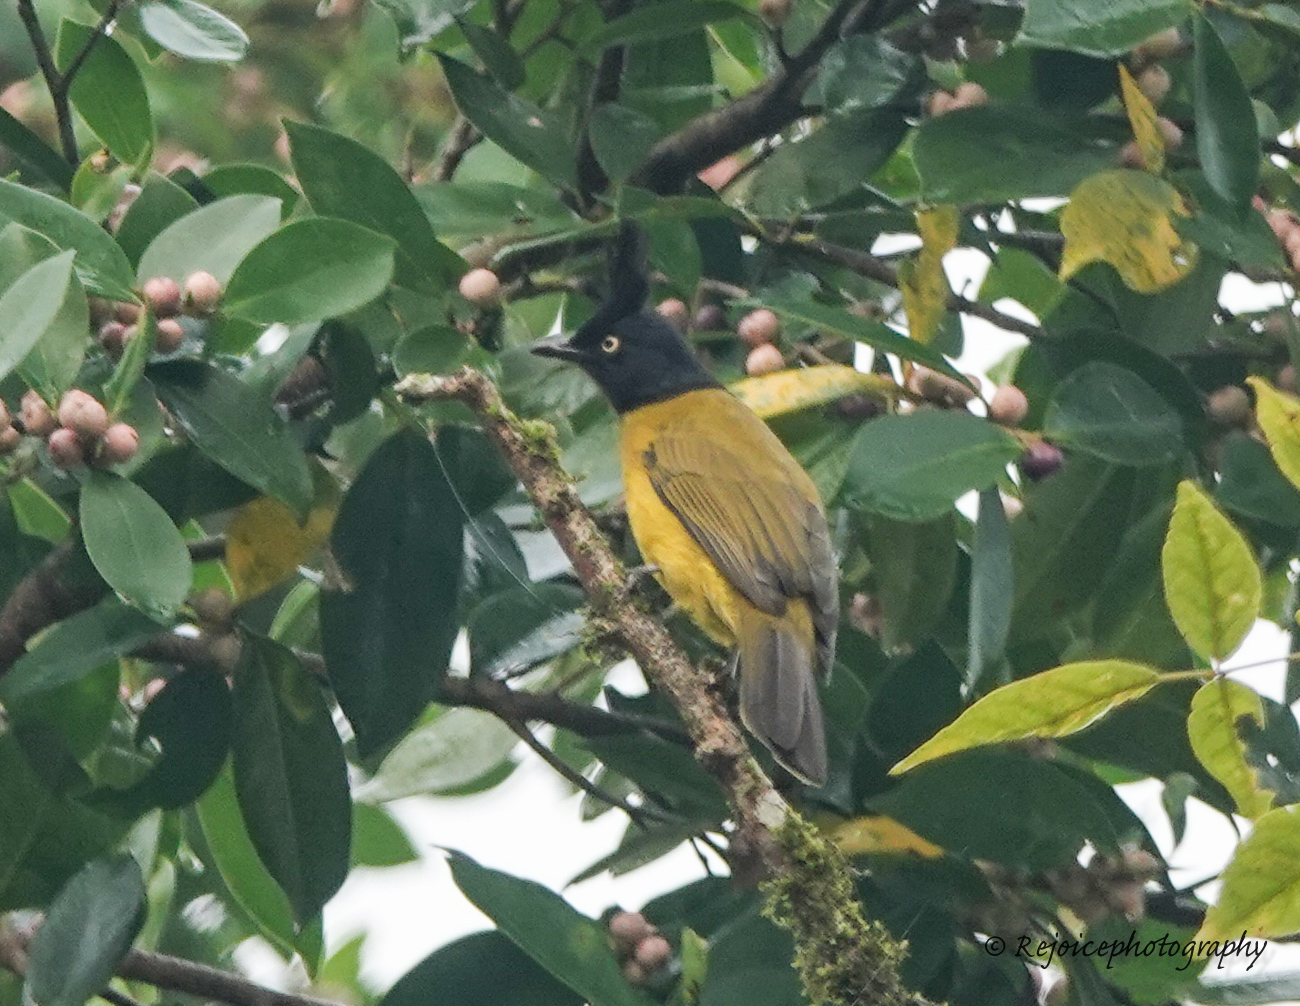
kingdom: Animalia
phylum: Chordata
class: Aves
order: Passeriformes
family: Pycnonotidae
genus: Pycnonotus
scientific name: Pycnonotus flaviventris
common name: Black-crested bulbul
